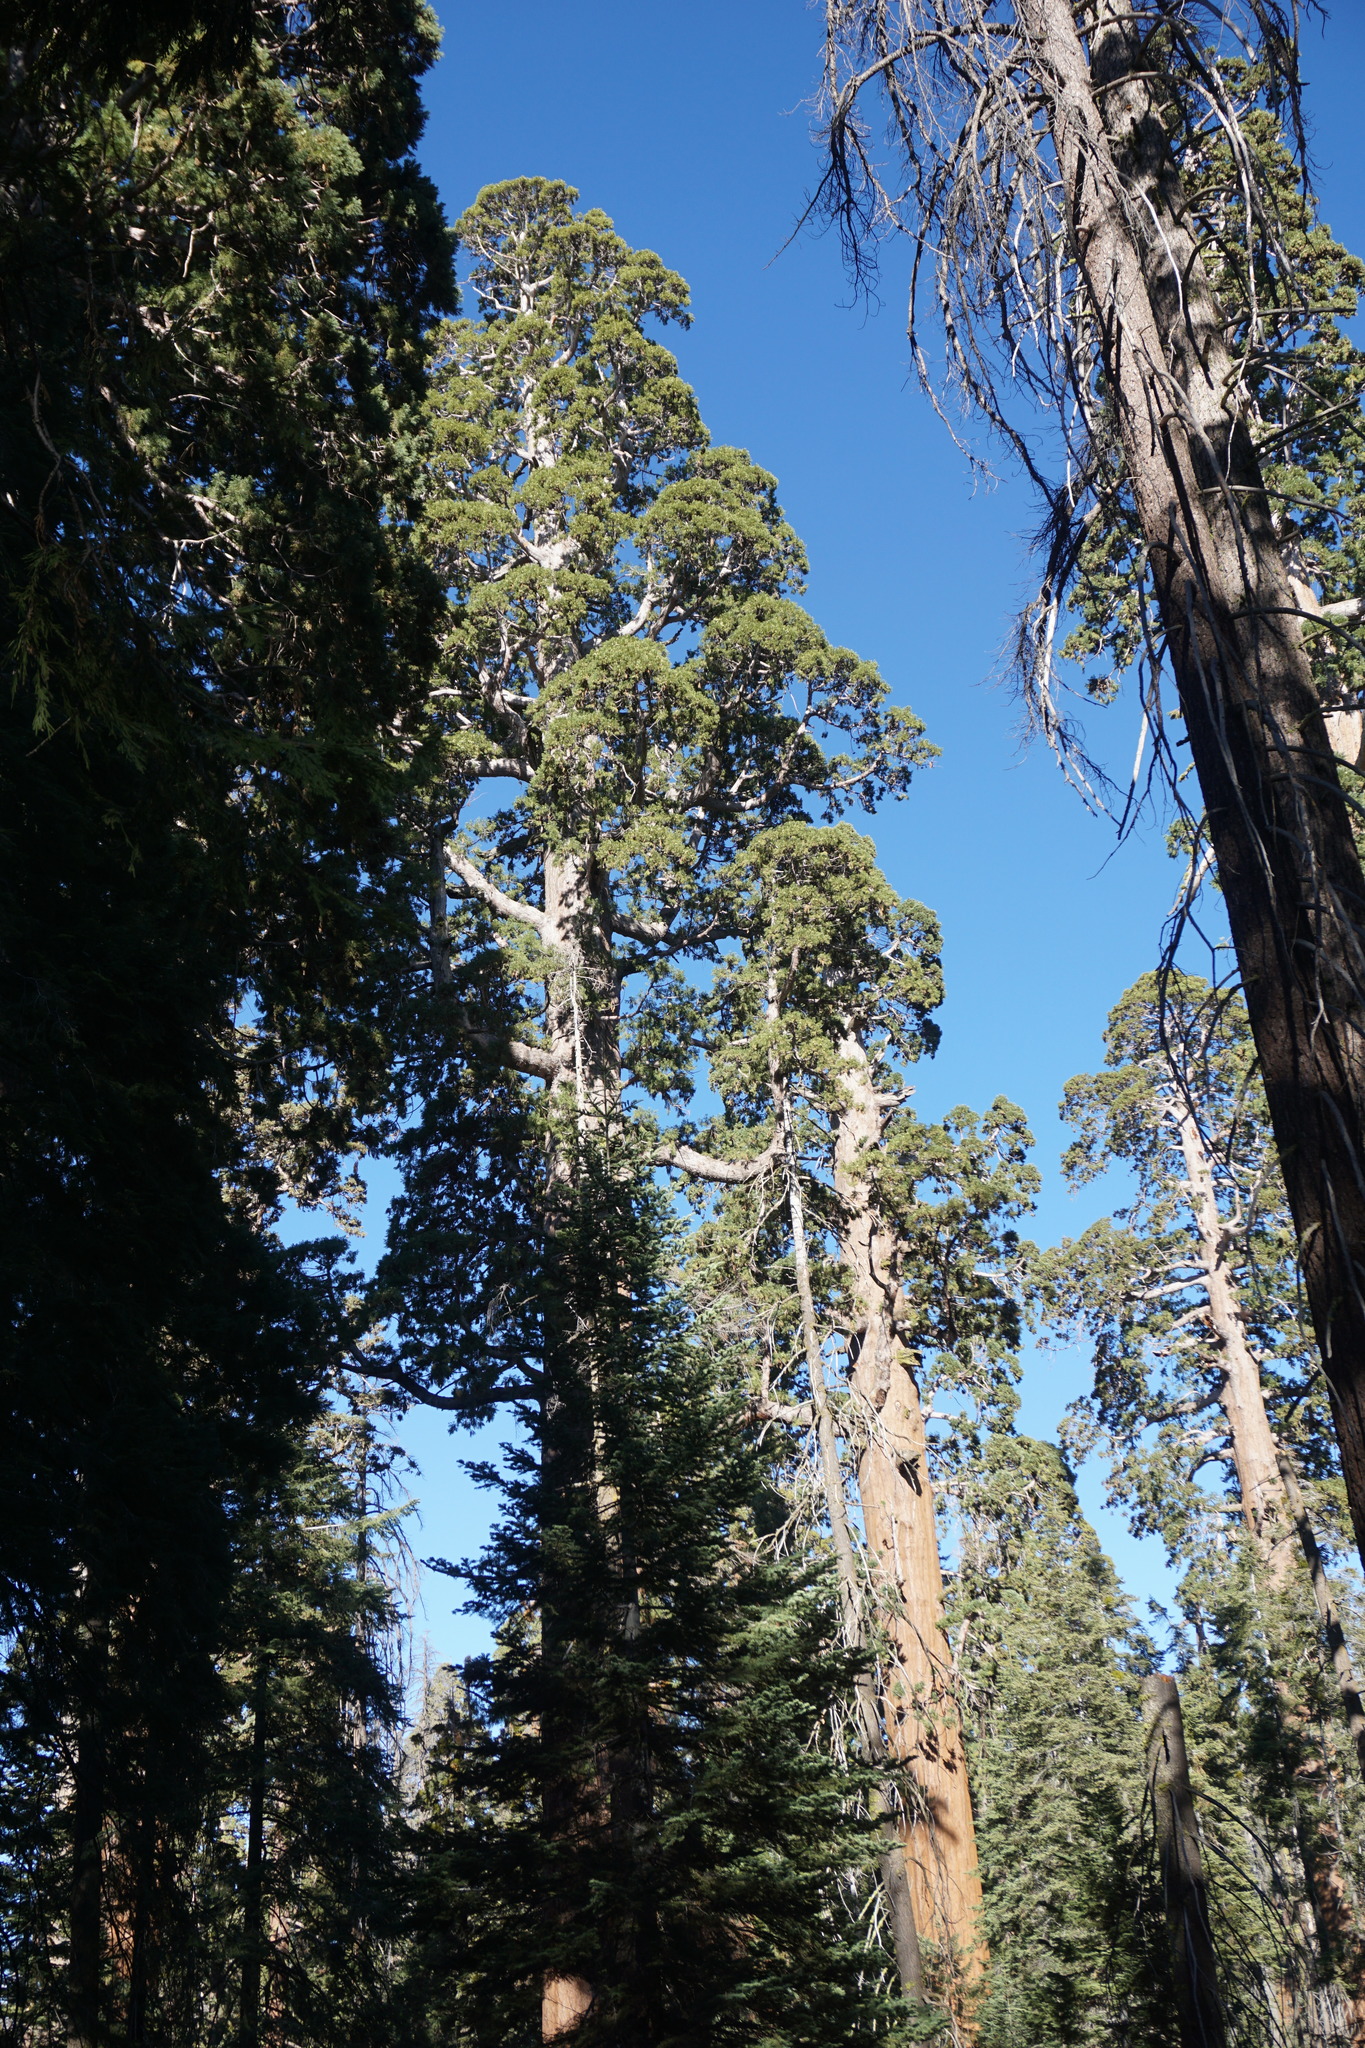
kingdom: Plantae
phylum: Tracheophyta
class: Pinopsida
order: Pinales
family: Cupressaceae
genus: Sequoiadendron
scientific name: Sequoiadendron giganteum
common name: Wellingtonia
